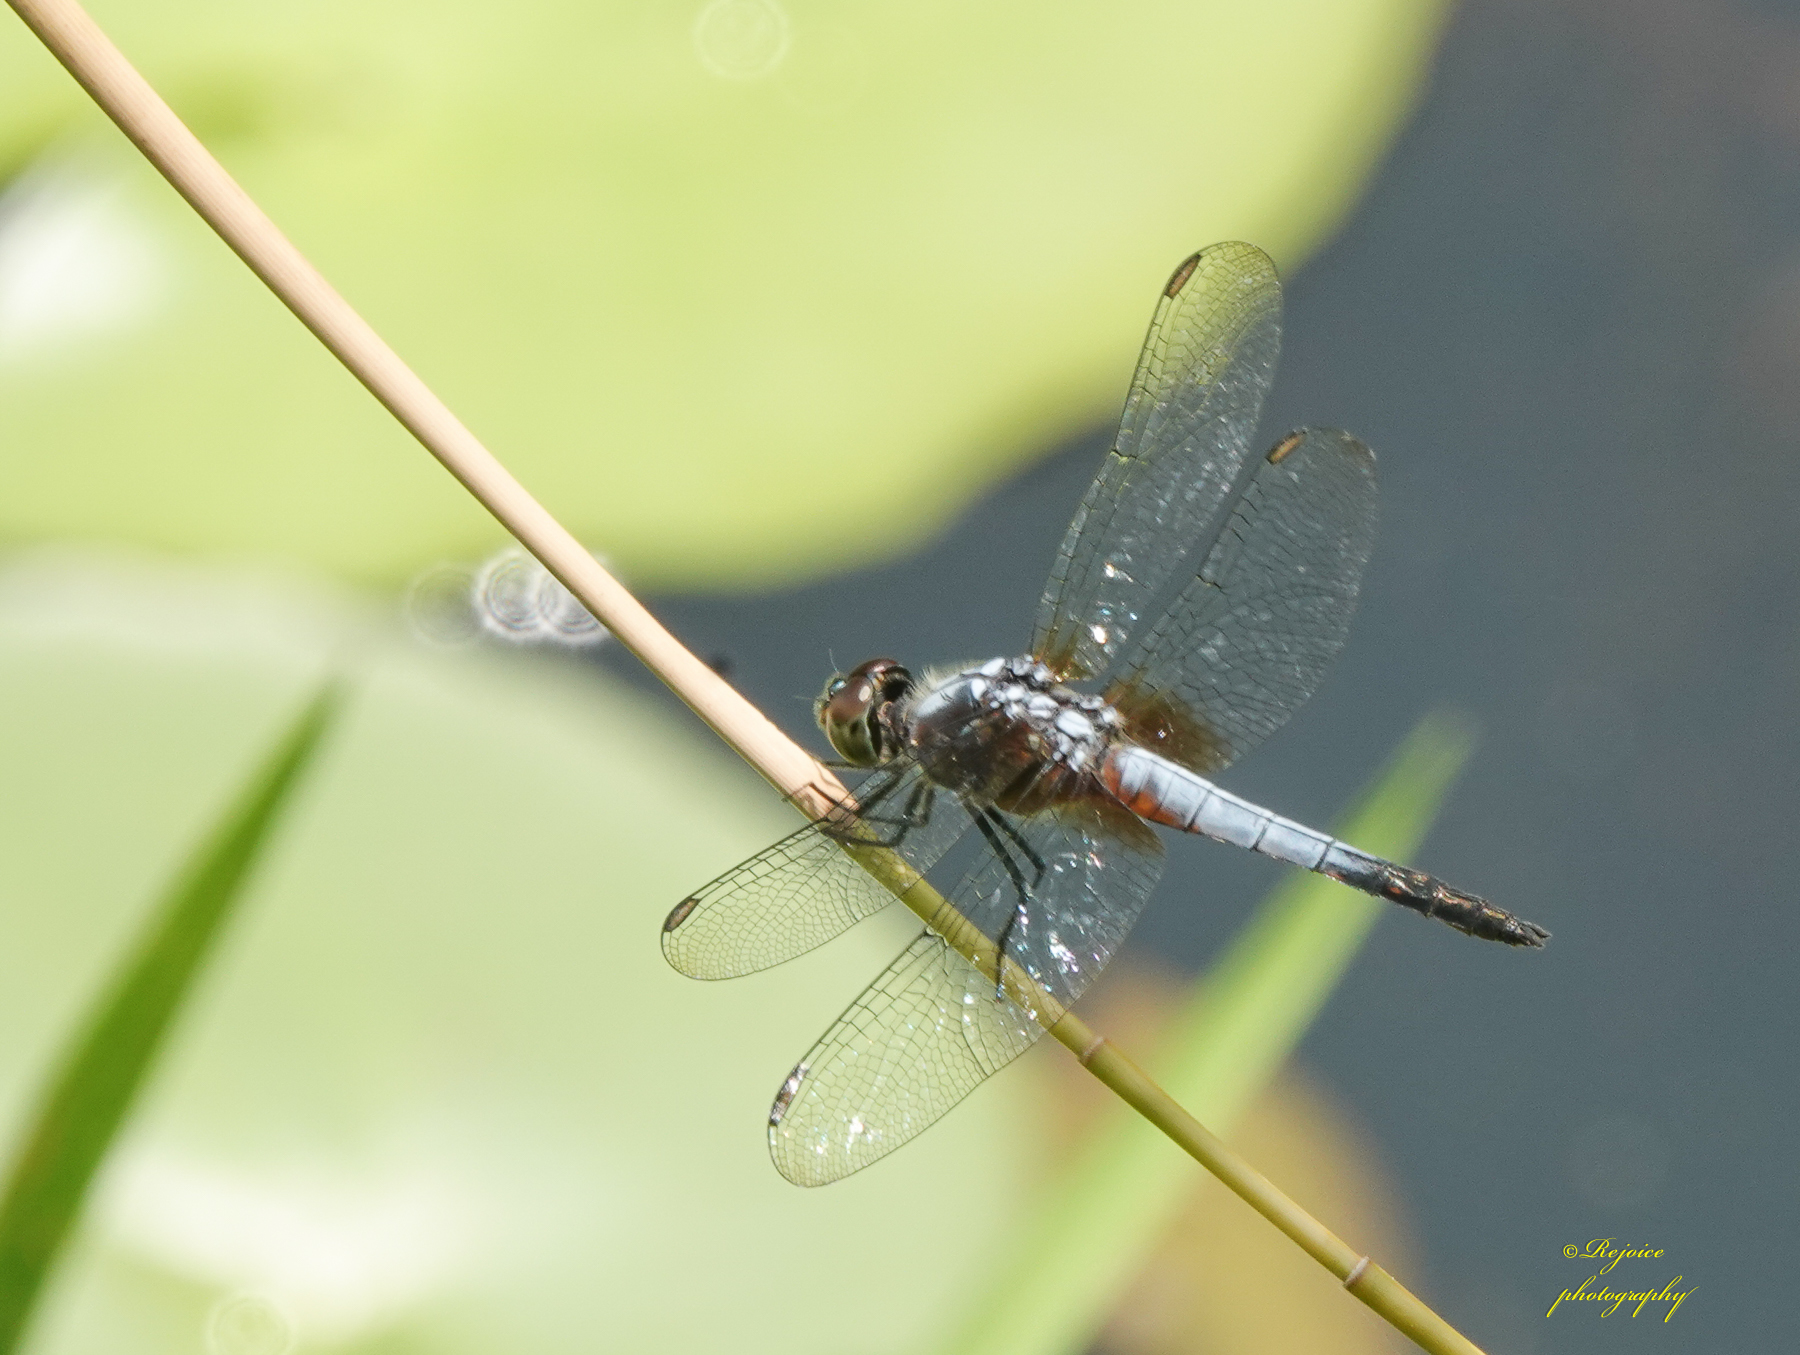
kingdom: Animalia
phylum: Arthropoda
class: Insecta
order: Odonata
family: Libellulidae
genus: Brachydiplax
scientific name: Brachydiplax chalybea
